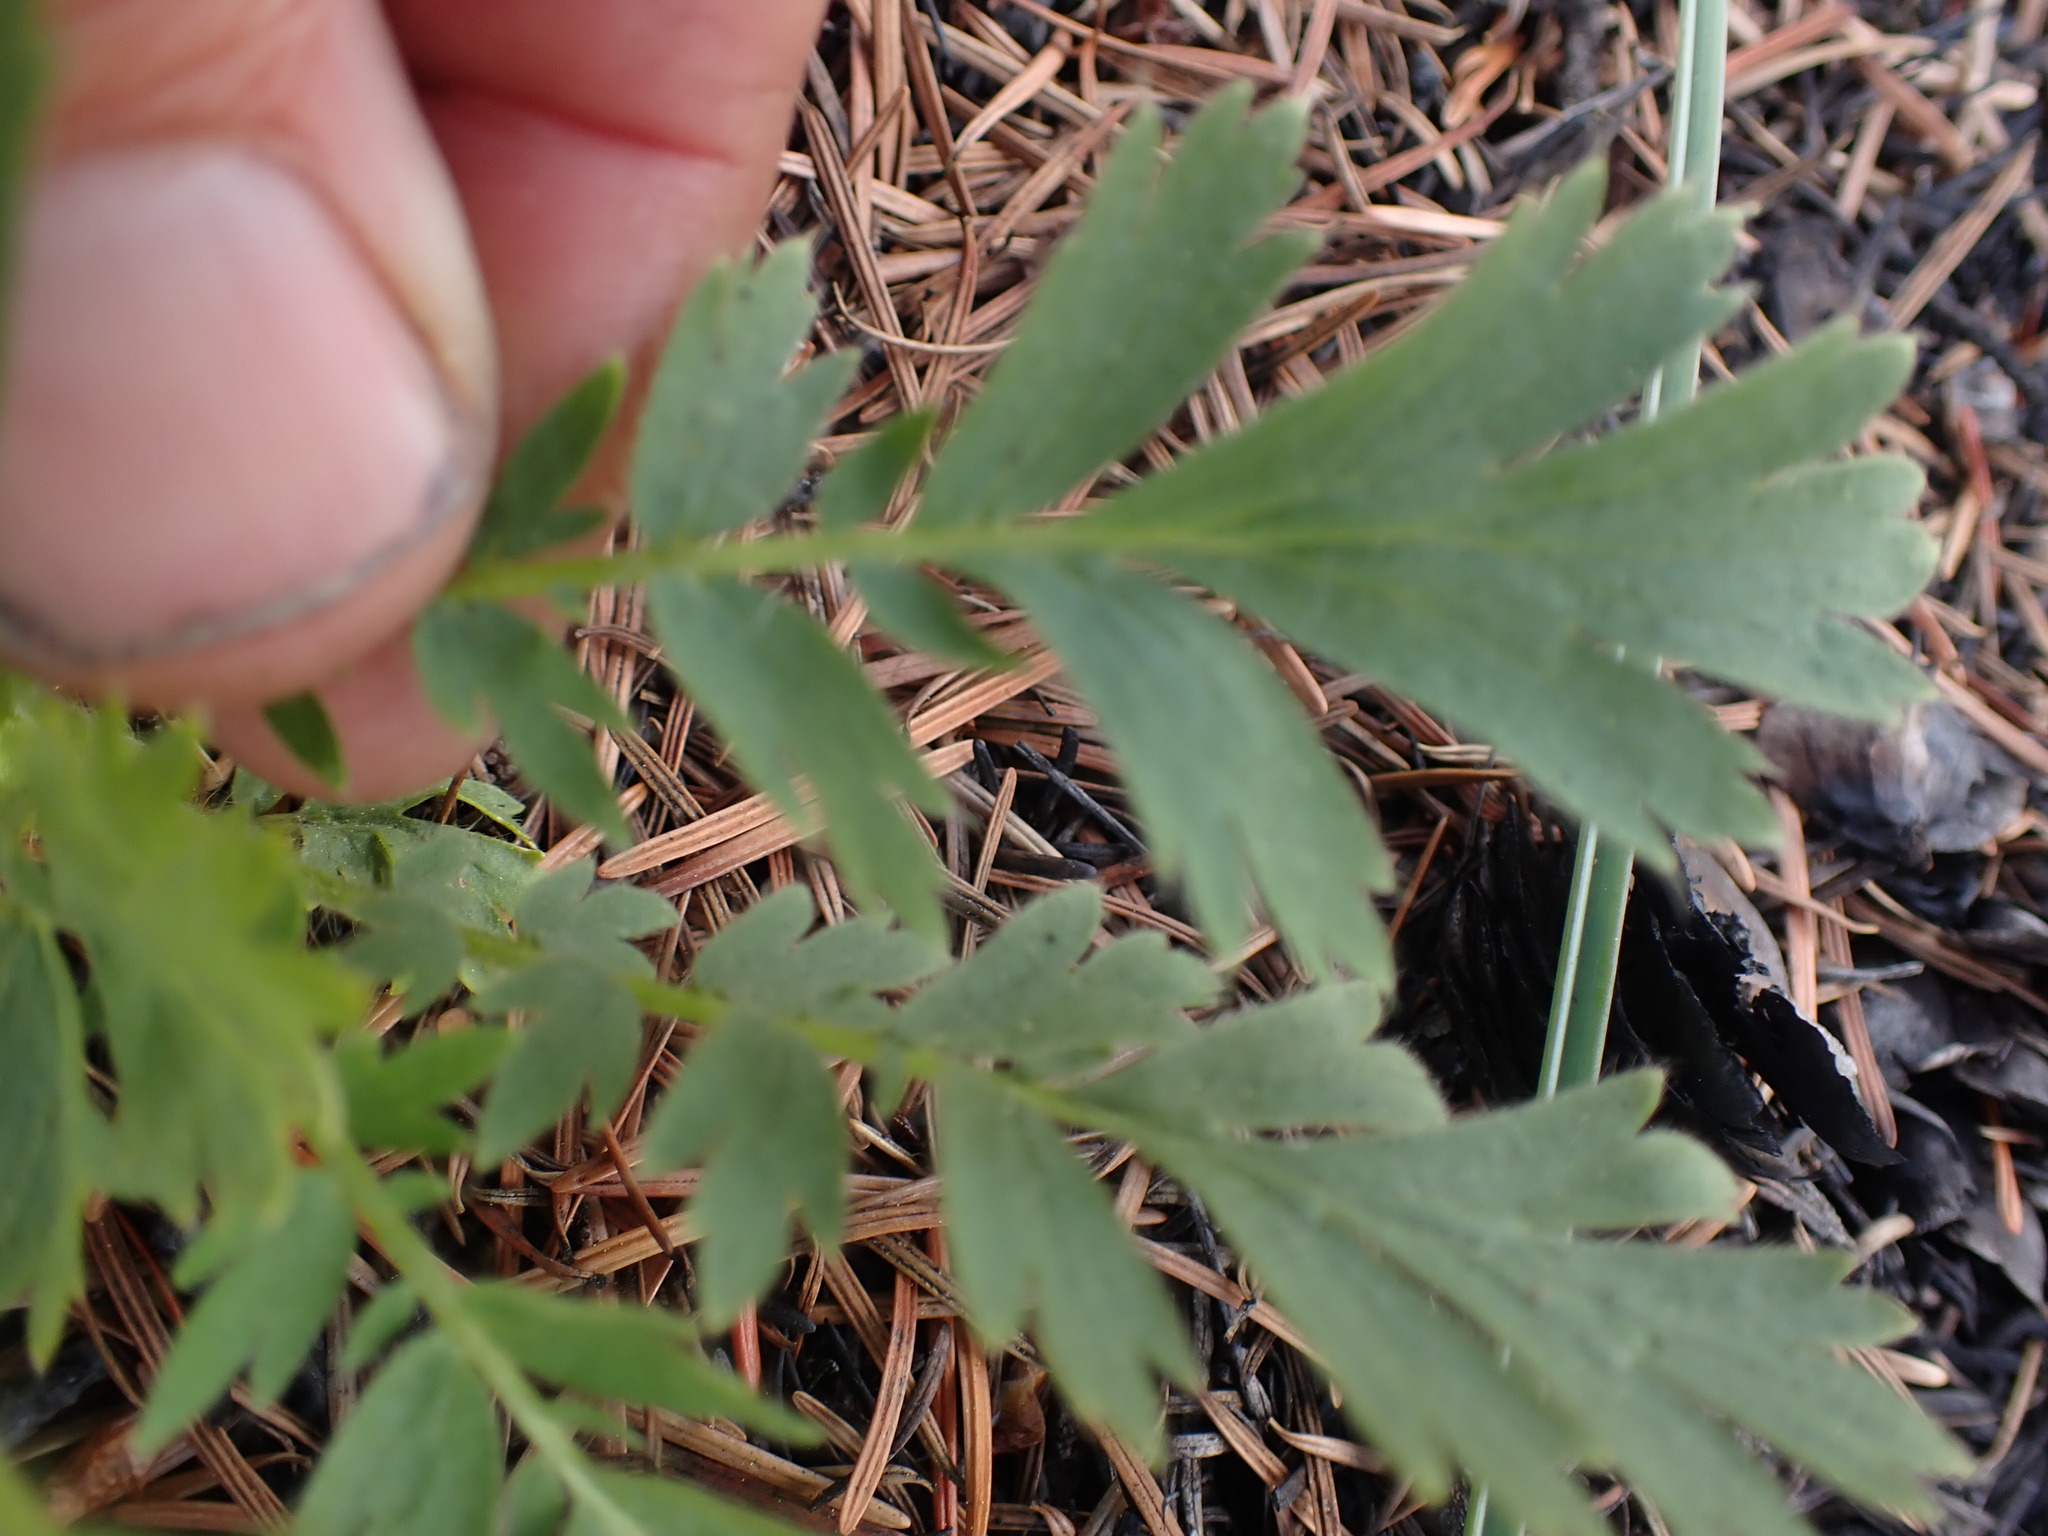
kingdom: Plantae
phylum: Tracheophyta
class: Magnoliopsida
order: Rosales
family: Rosaceae
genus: Geum
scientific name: Geum triflorum
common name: Old man's whiskers
